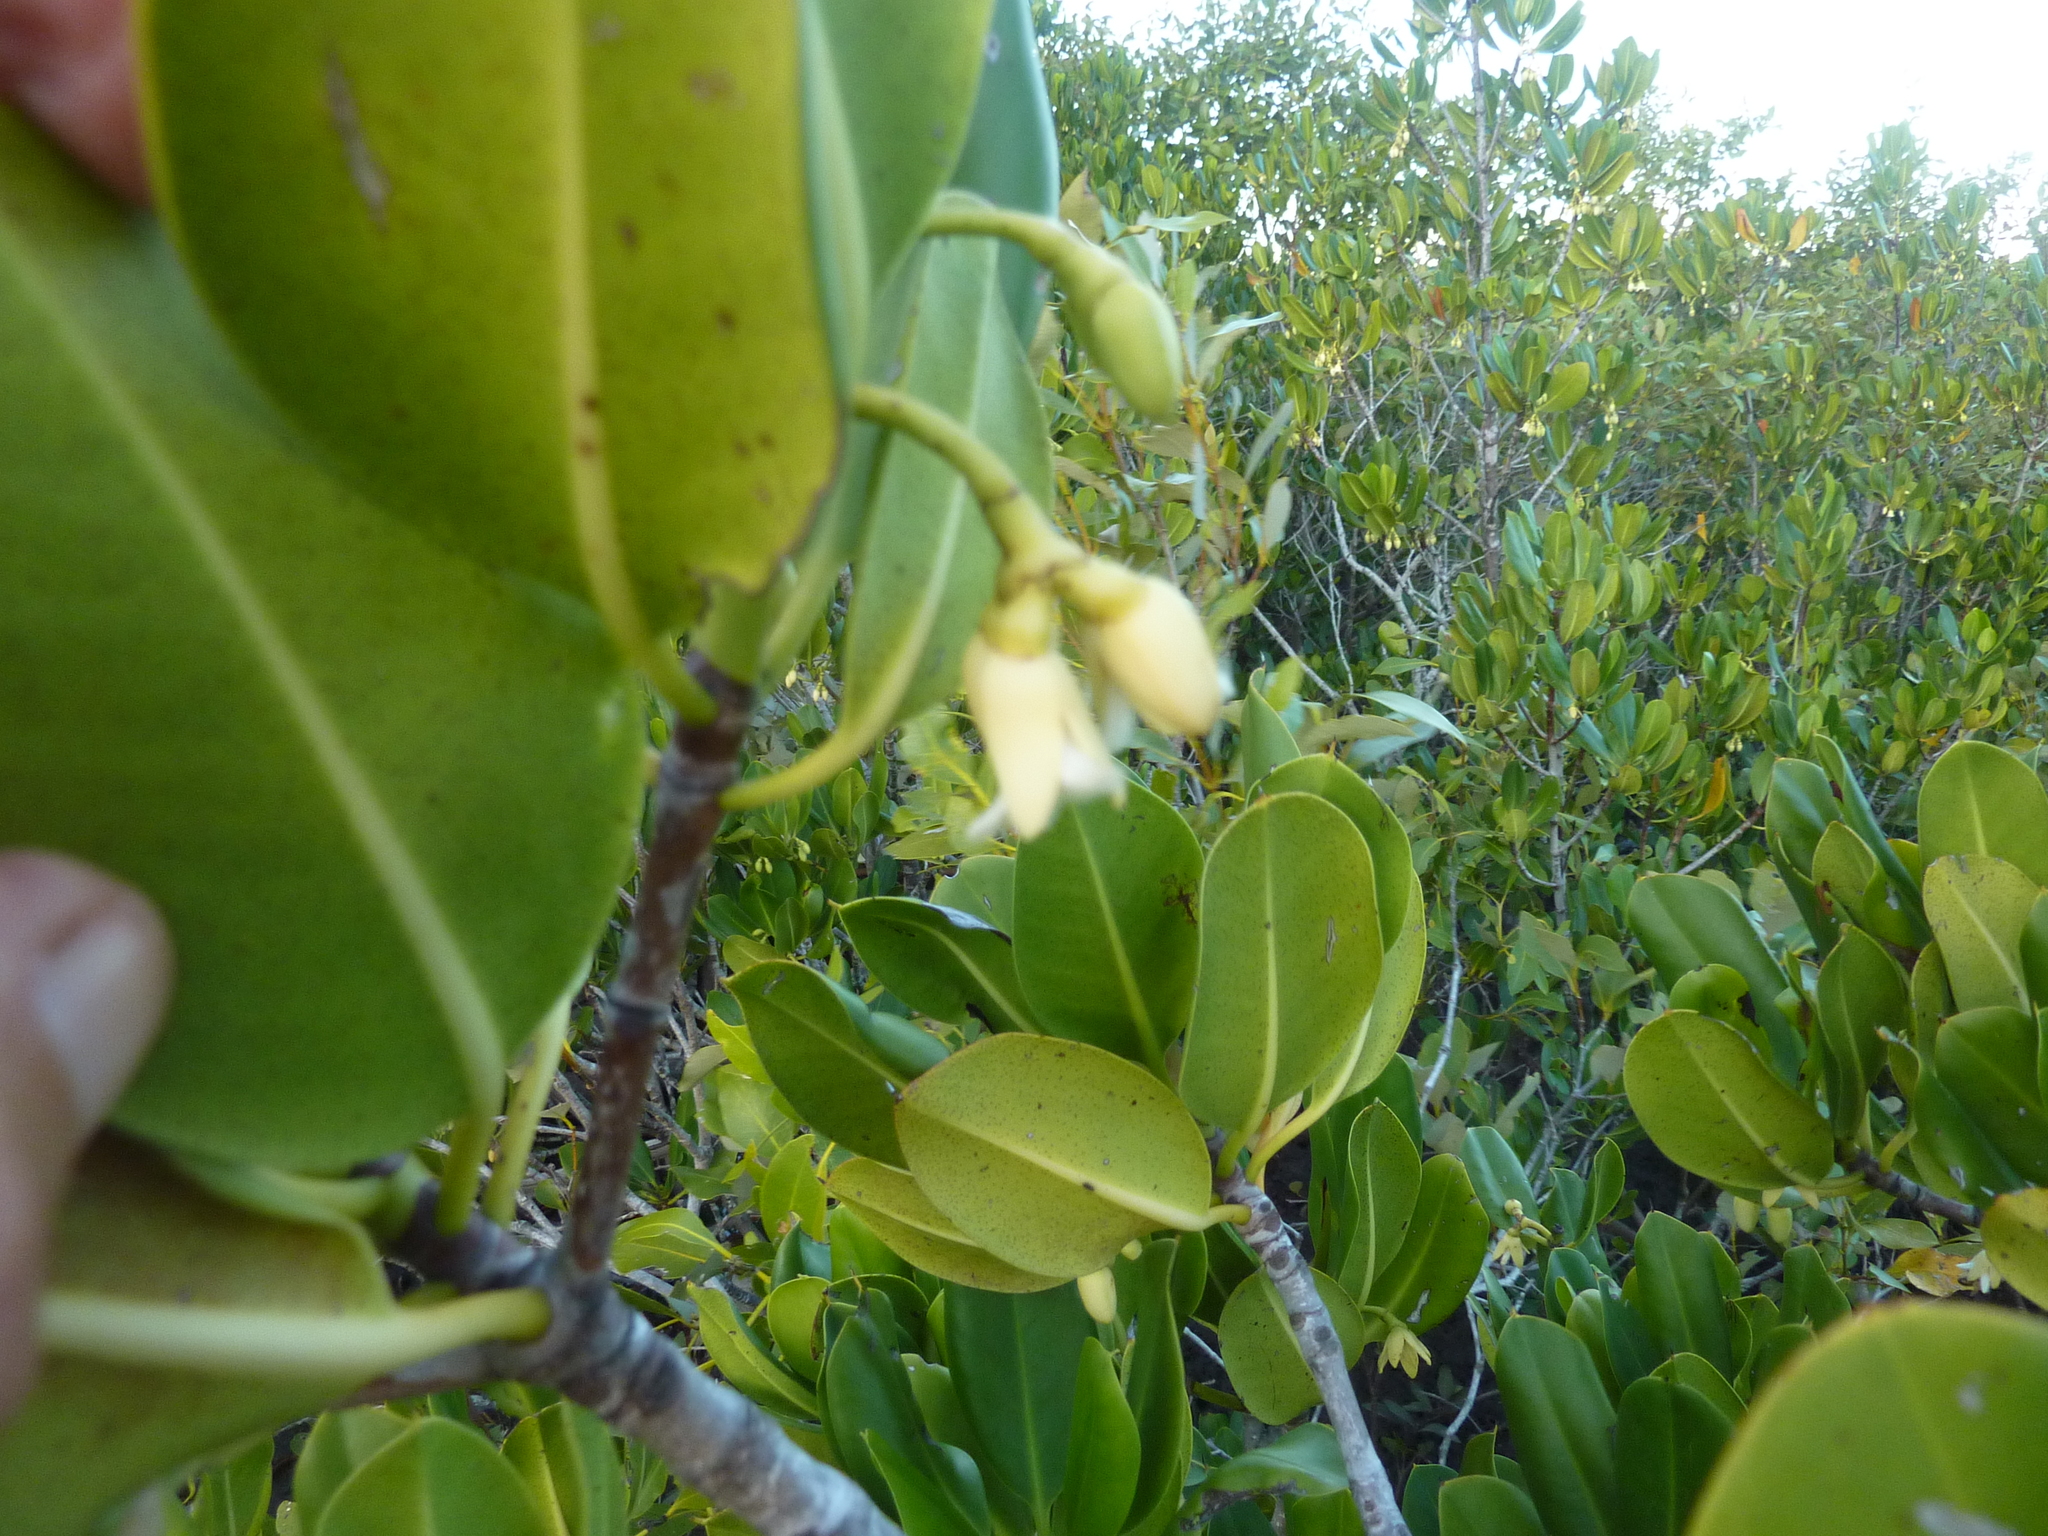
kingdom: Plantae
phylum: Tracheophyta
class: Magnoliopsida
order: Malpighiales
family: Rhizophoraceae
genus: Rhizophora
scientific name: Rhizophora stylosa
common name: Red mangrove
